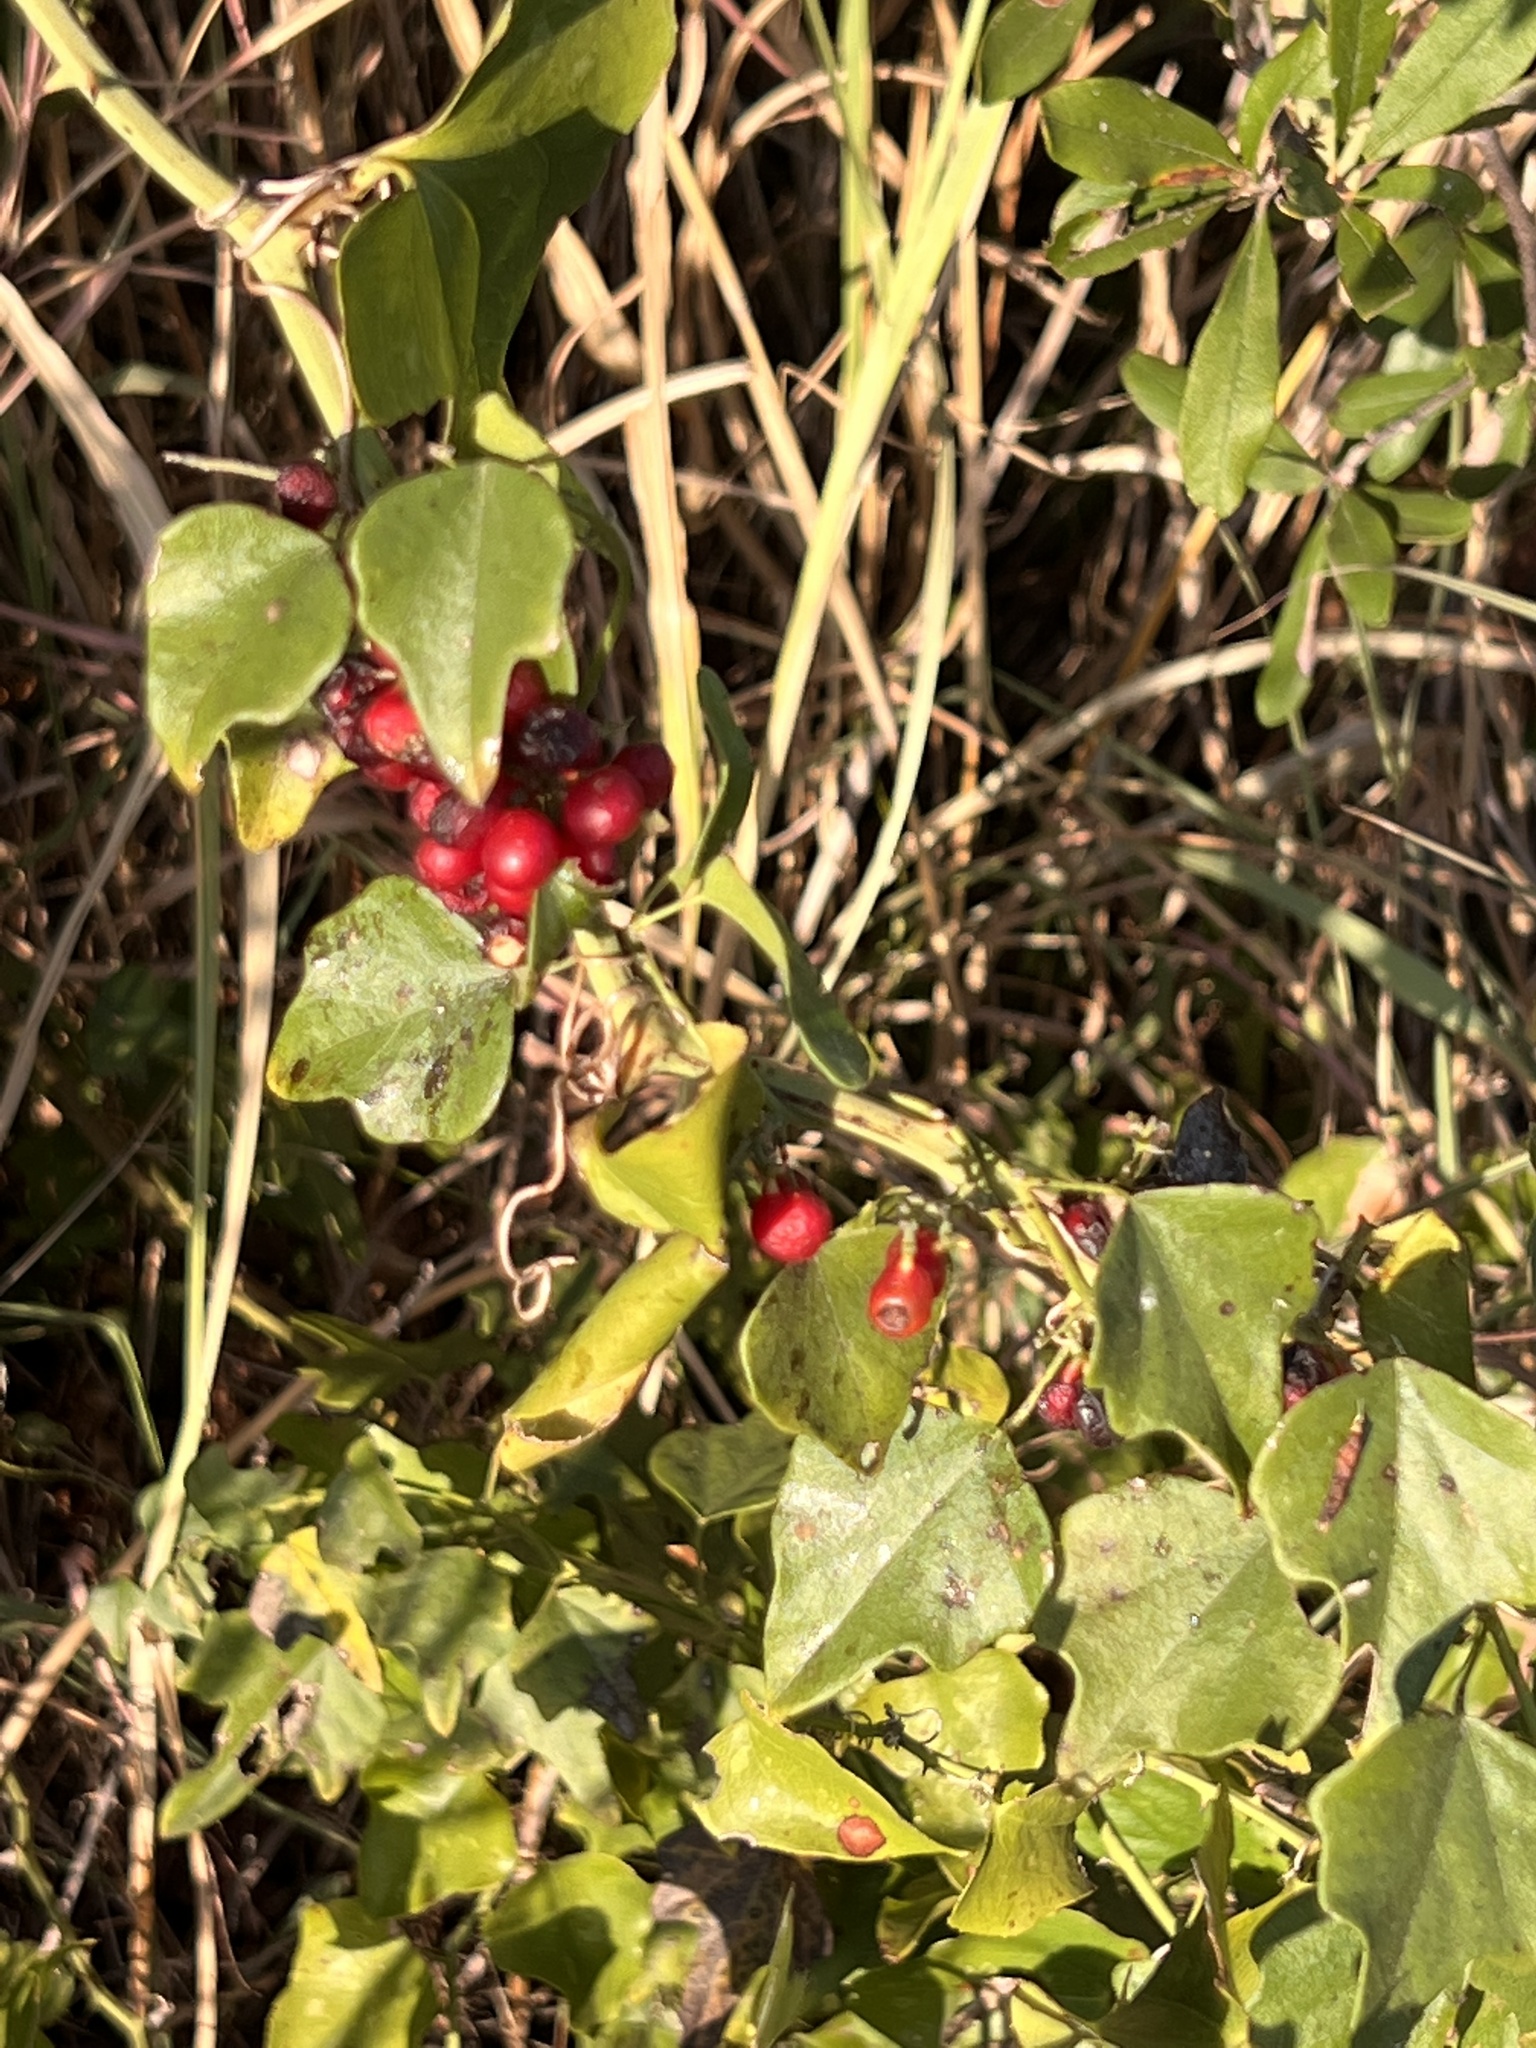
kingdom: Plantae
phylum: Tracheophyta
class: Magnoliopsida
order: Ranunculales
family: Menispermaceae
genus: Cocculus
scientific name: Cocculus carolinus
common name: Carolina moonseed
